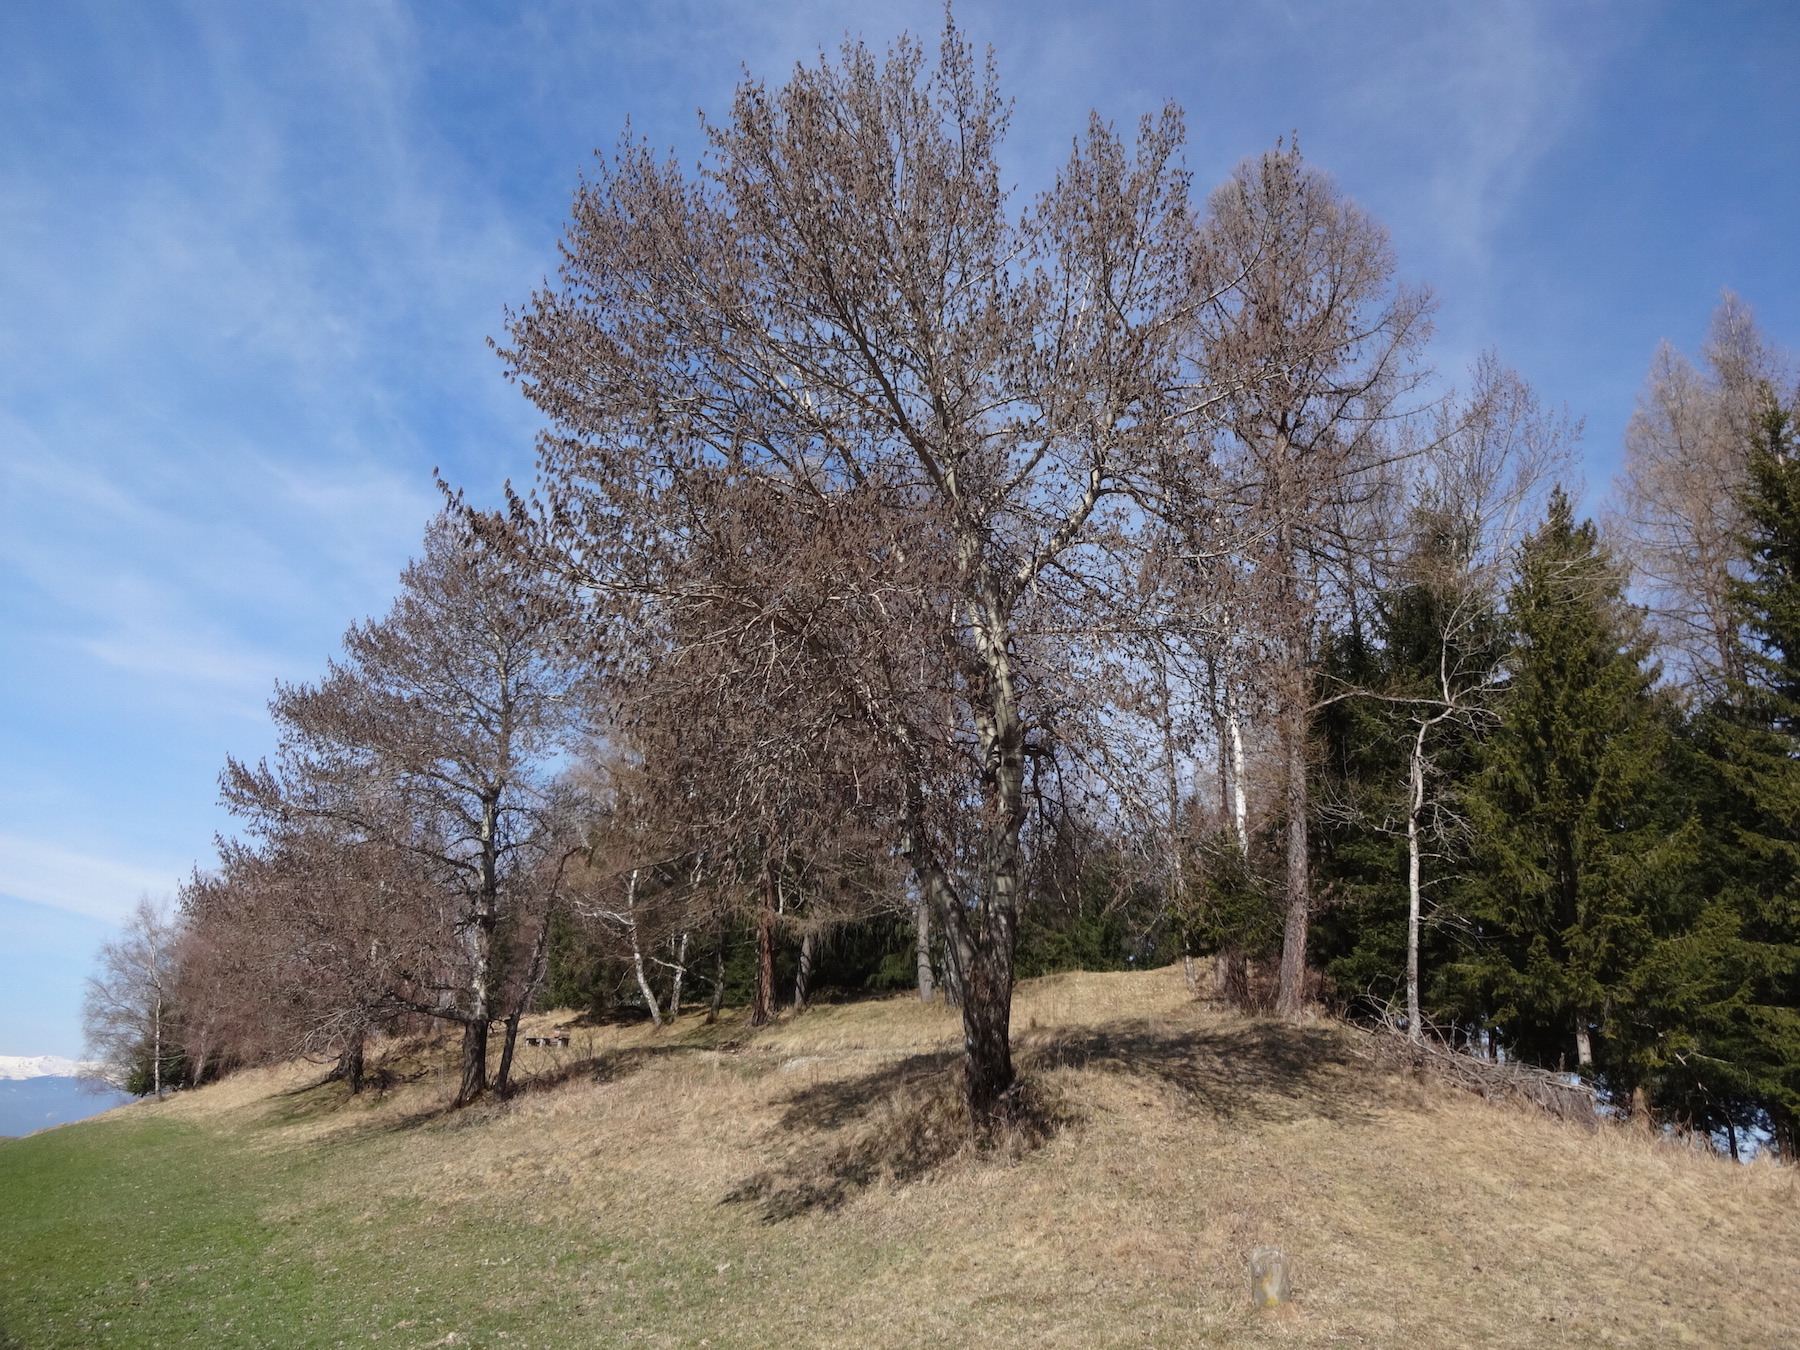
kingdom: Plantae
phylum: Tracheophyta
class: Magnoliopsida
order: Malpighiales
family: Salicaceae
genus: Populus
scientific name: Populus tremula
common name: European aspen
